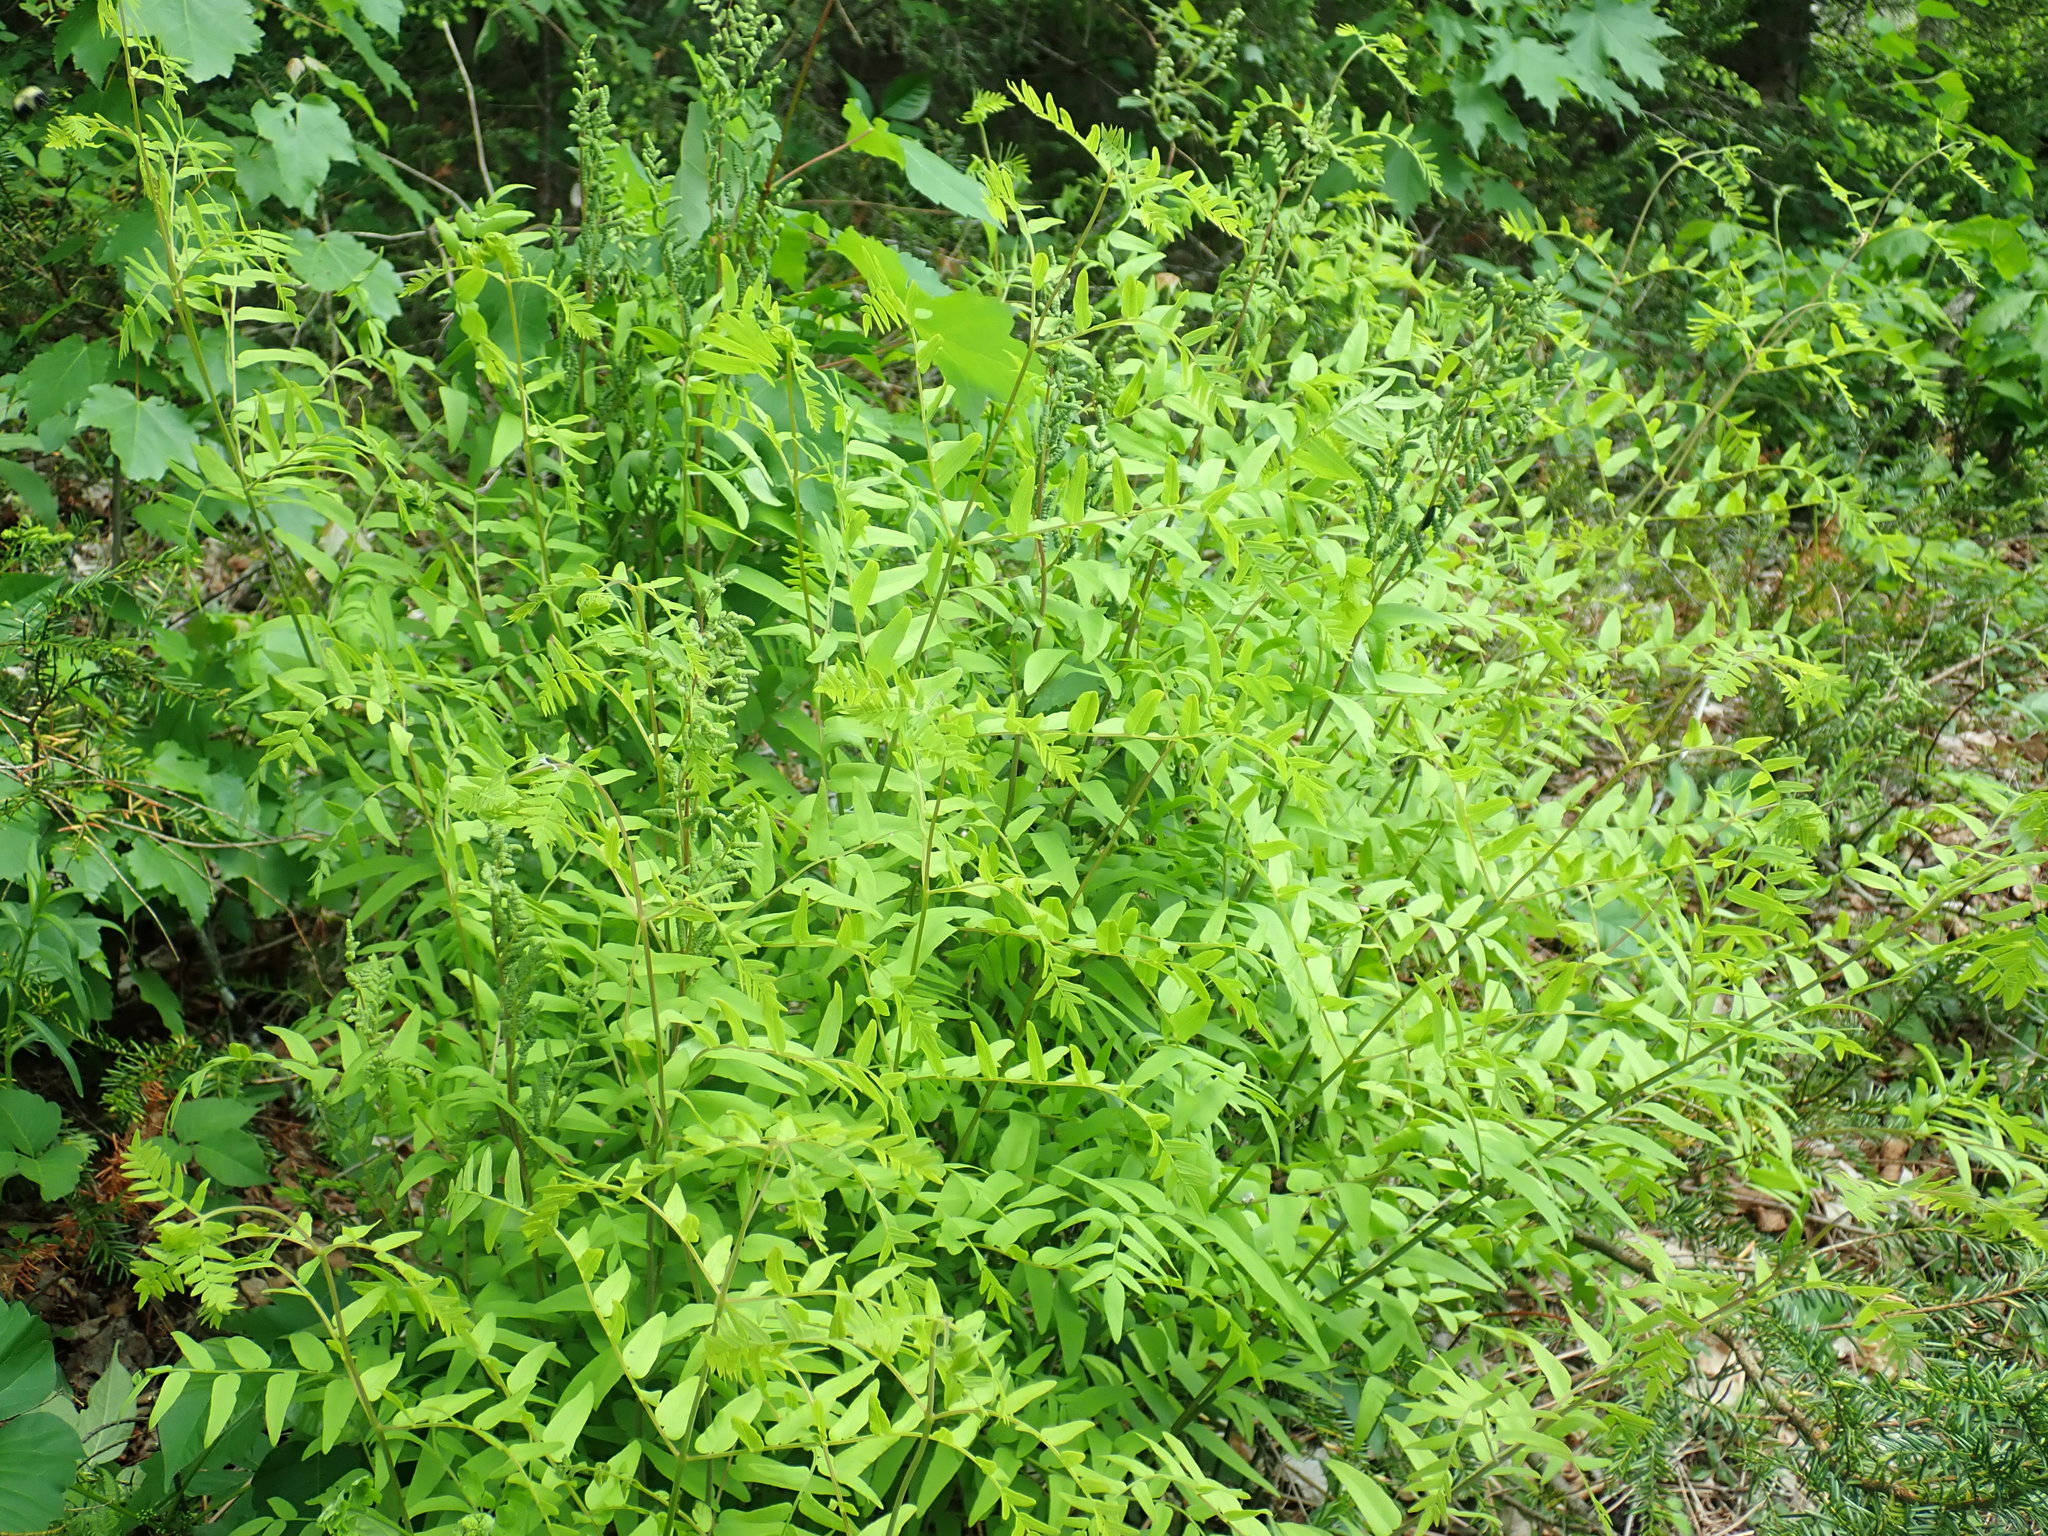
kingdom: Plantae
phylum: Tracheophyta
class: Polypodiopsida
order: Osmundales
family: Osmundaceae
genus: Osmunda
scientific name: Osmunda spectabilis
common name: American royal fern
